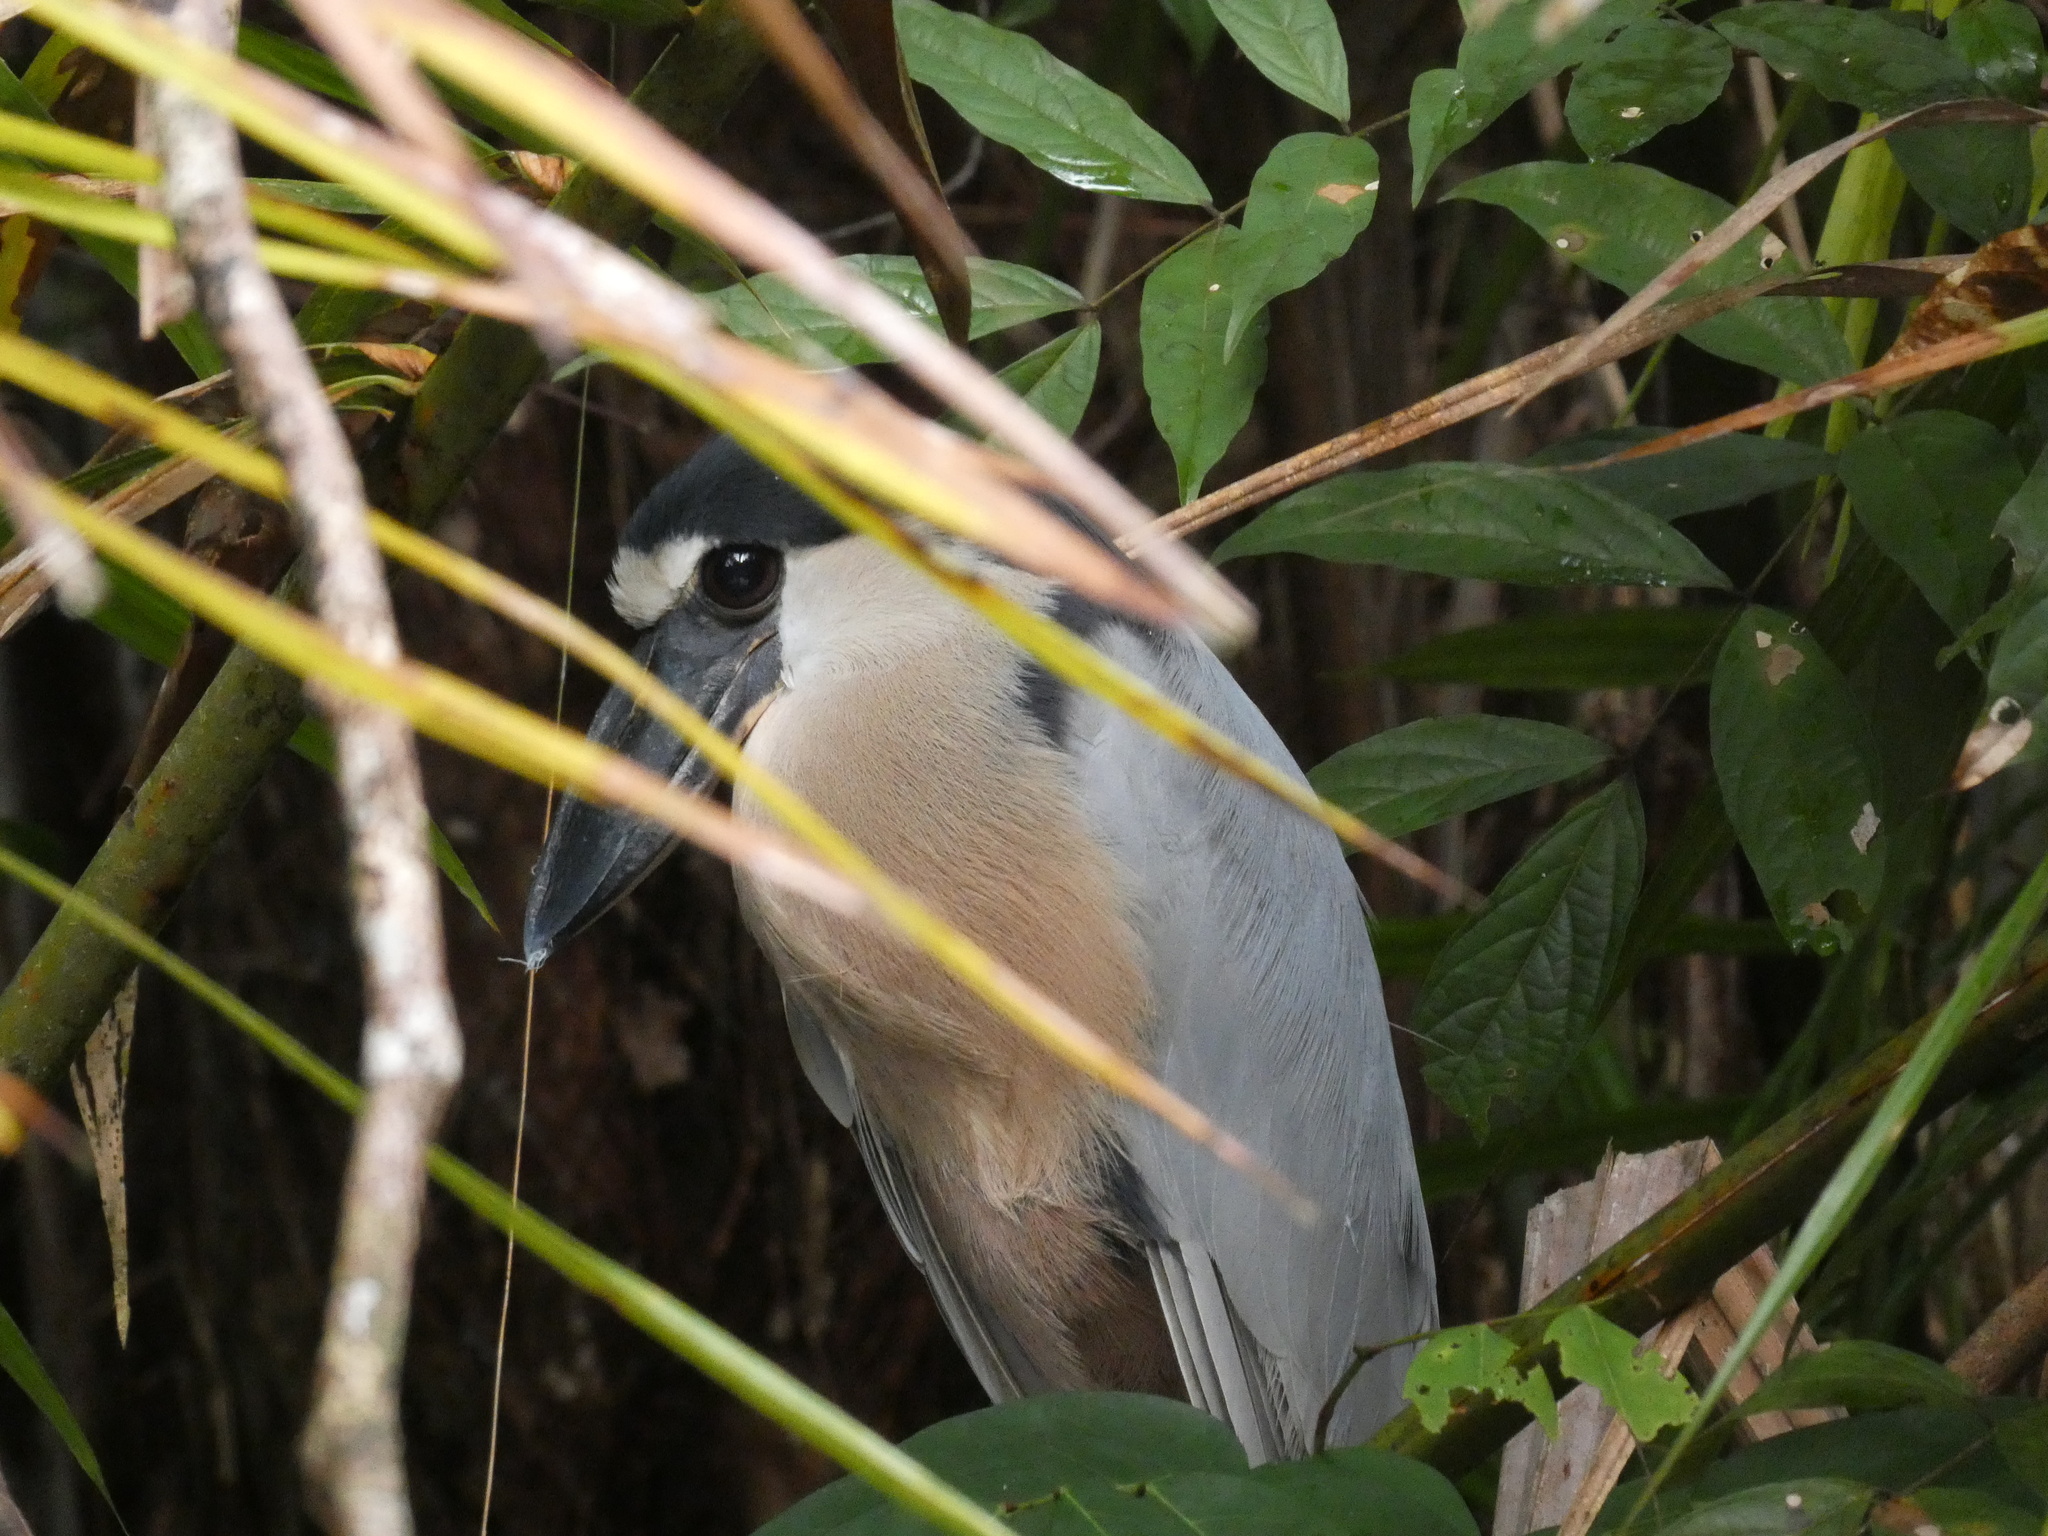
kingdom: Animalia
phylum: Chordata
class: Aves
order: Pelecaniformes
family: Ardeidae
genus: Cochlearius
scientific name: Cochlearius cochlearius
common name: Boat-billed heron
